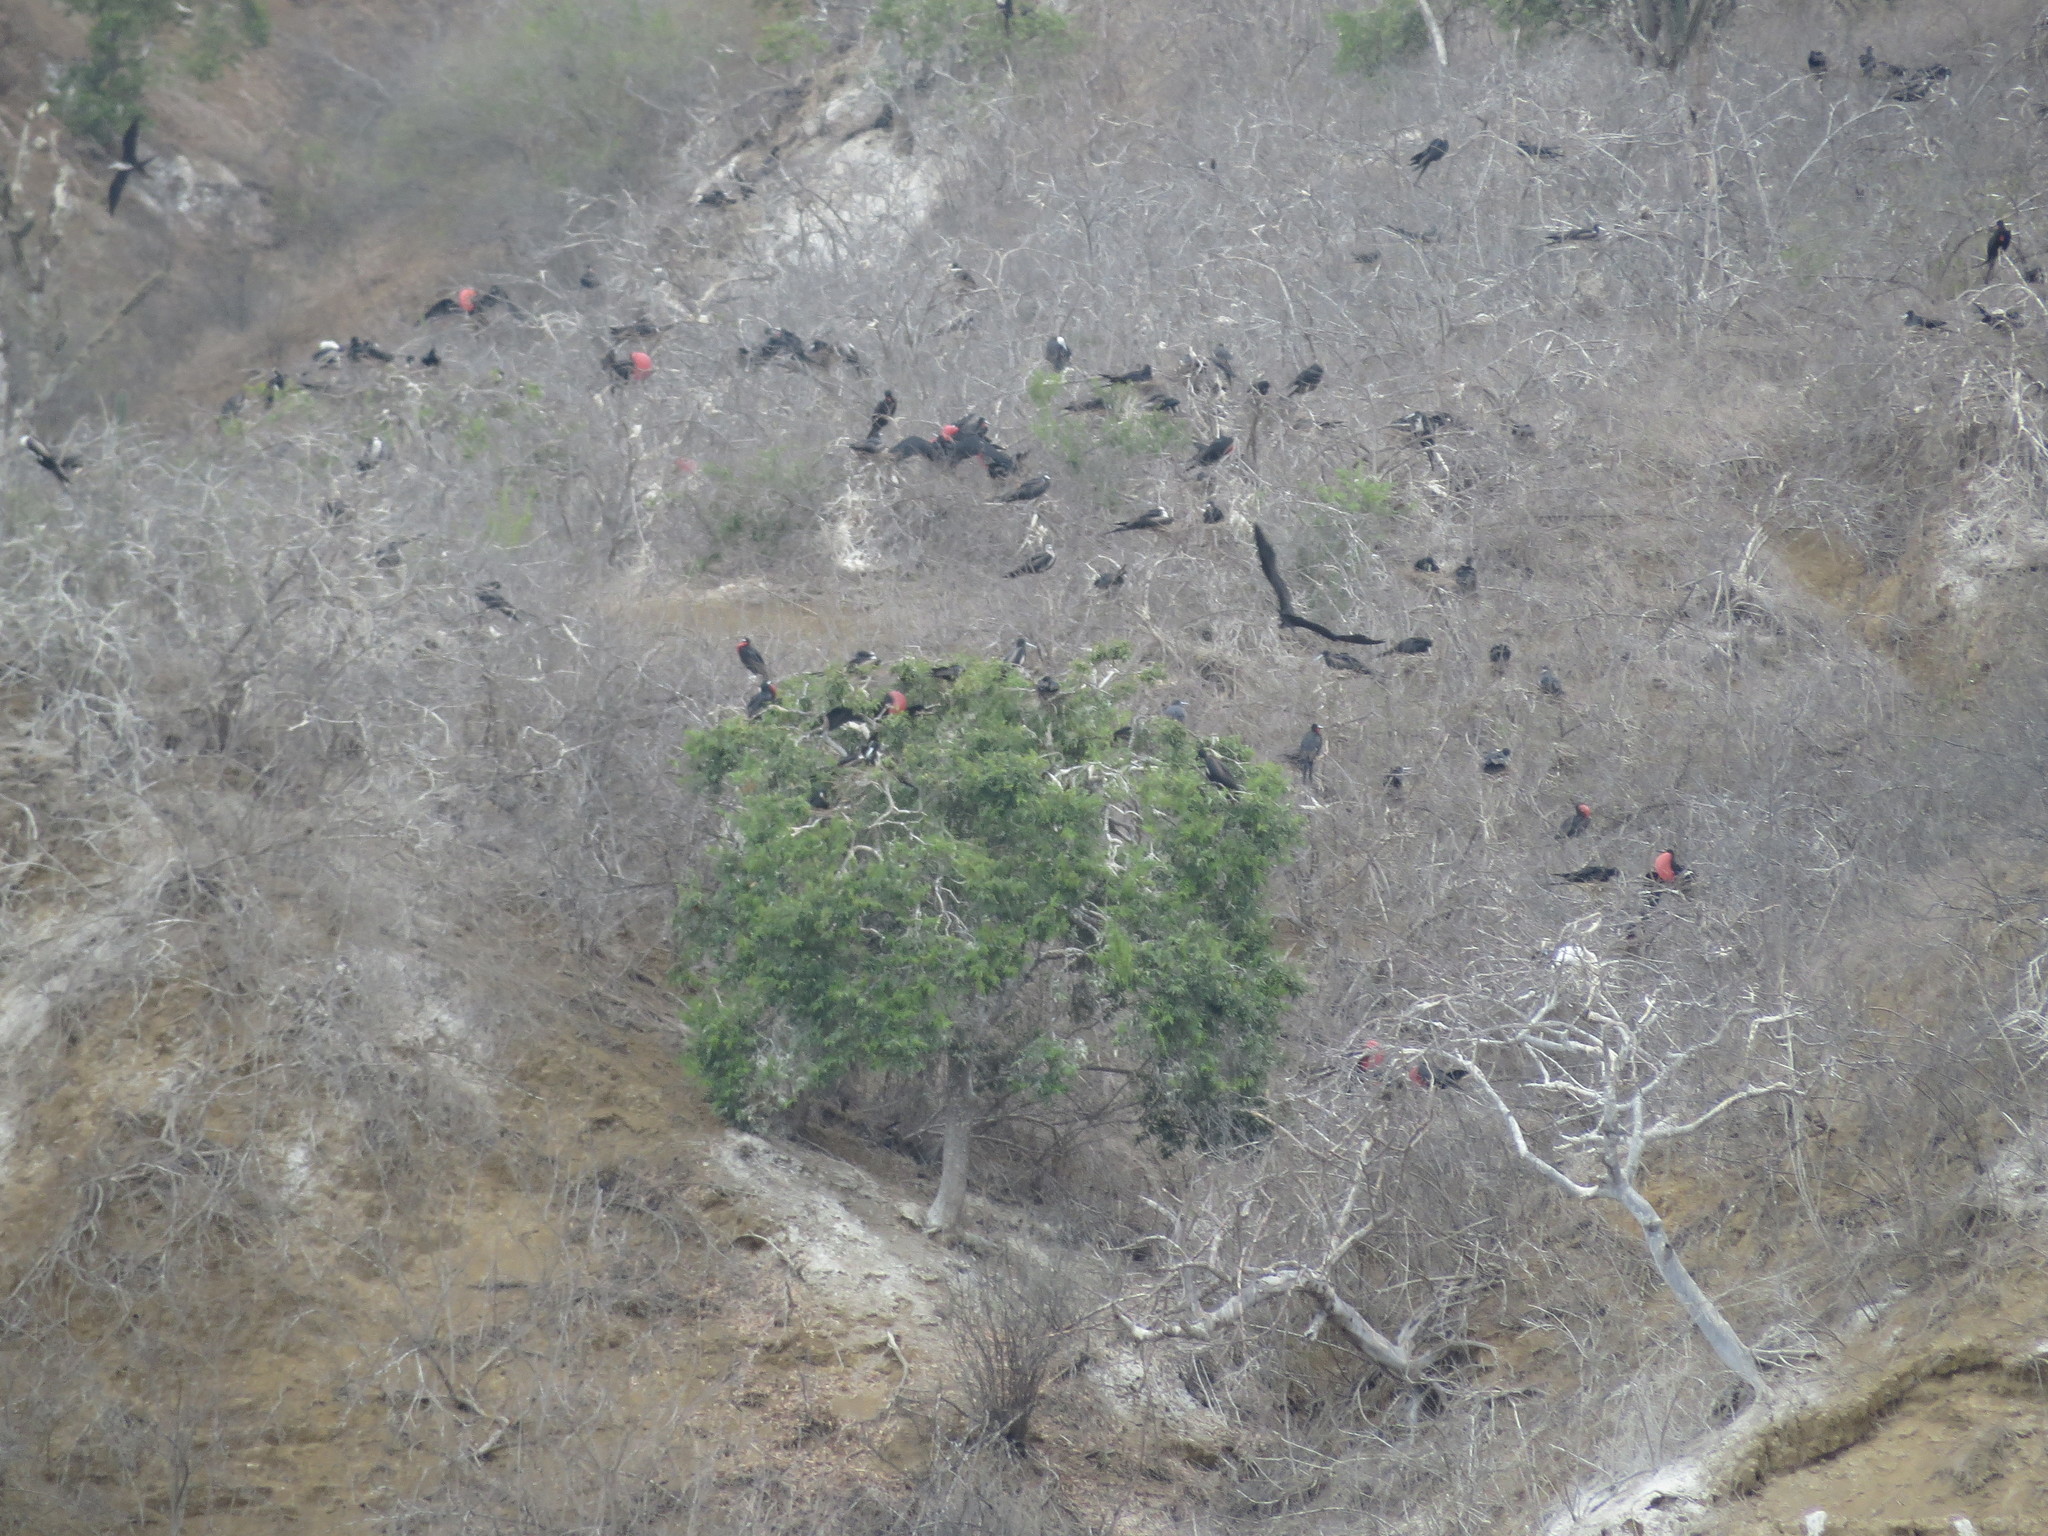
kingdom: Animalia
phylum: Chordata
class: Aves
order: Suliformes
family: Fregatidae
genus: Fregata
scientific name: Fregata magnificens
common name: Magnificent frigatebird
